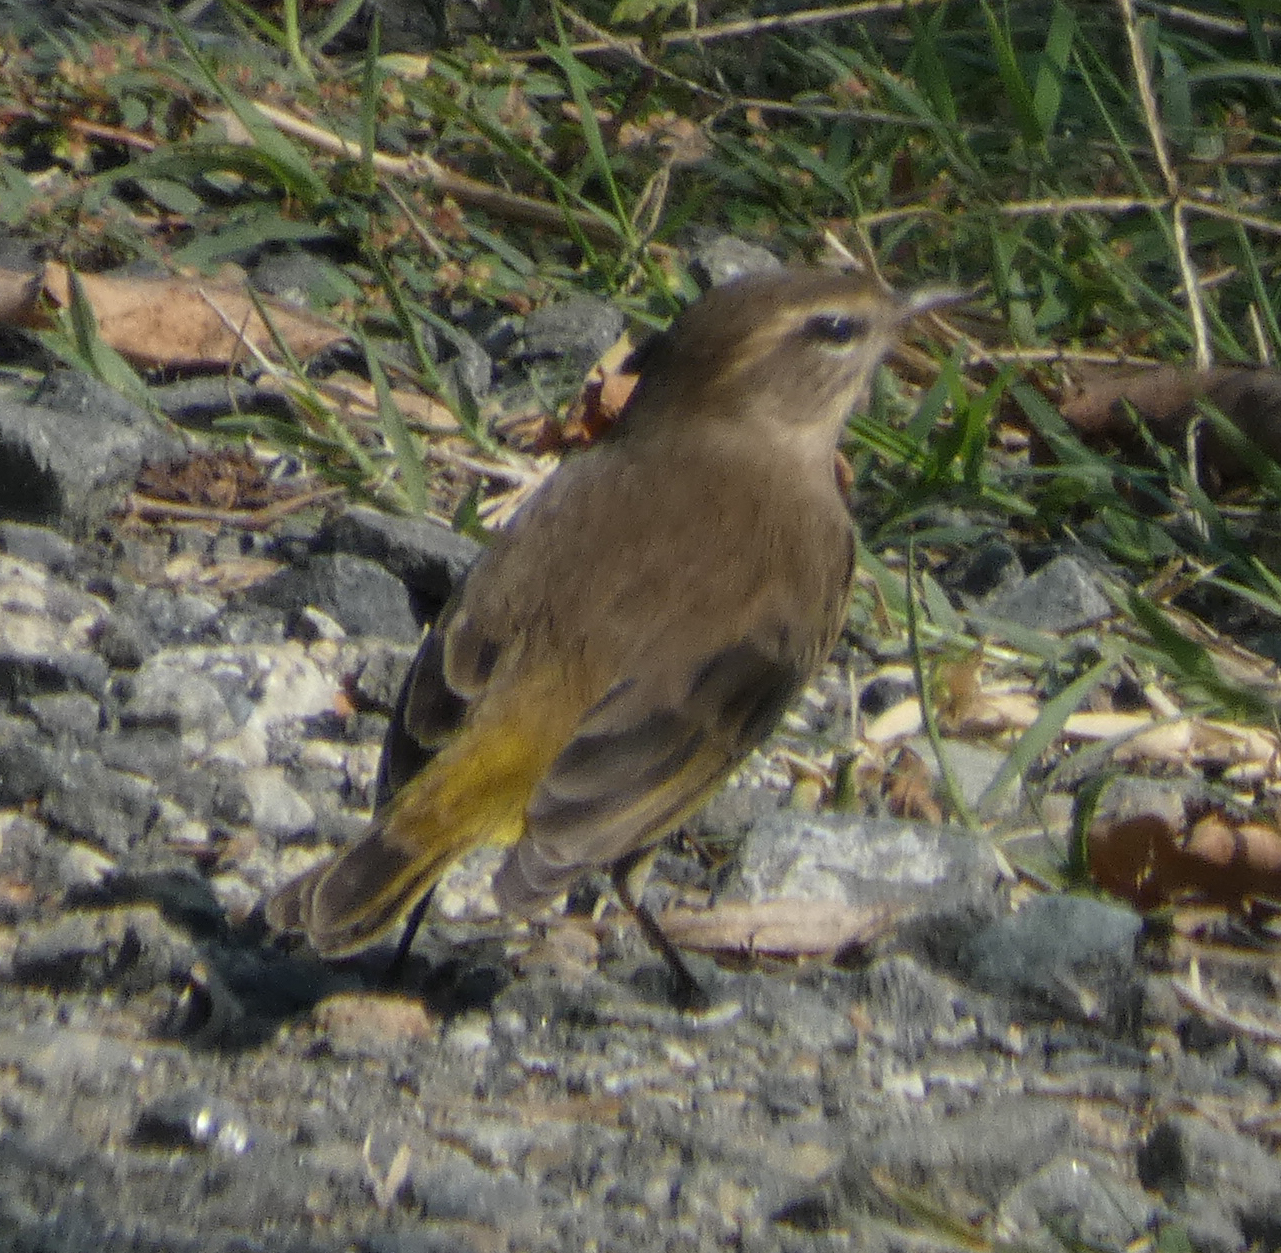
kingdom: Animalia
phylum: Chordata
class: Aves
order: Passeriformes
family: Parulidae
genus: Setophaga
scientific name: Setophaga palmarum
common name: Palm warbler
